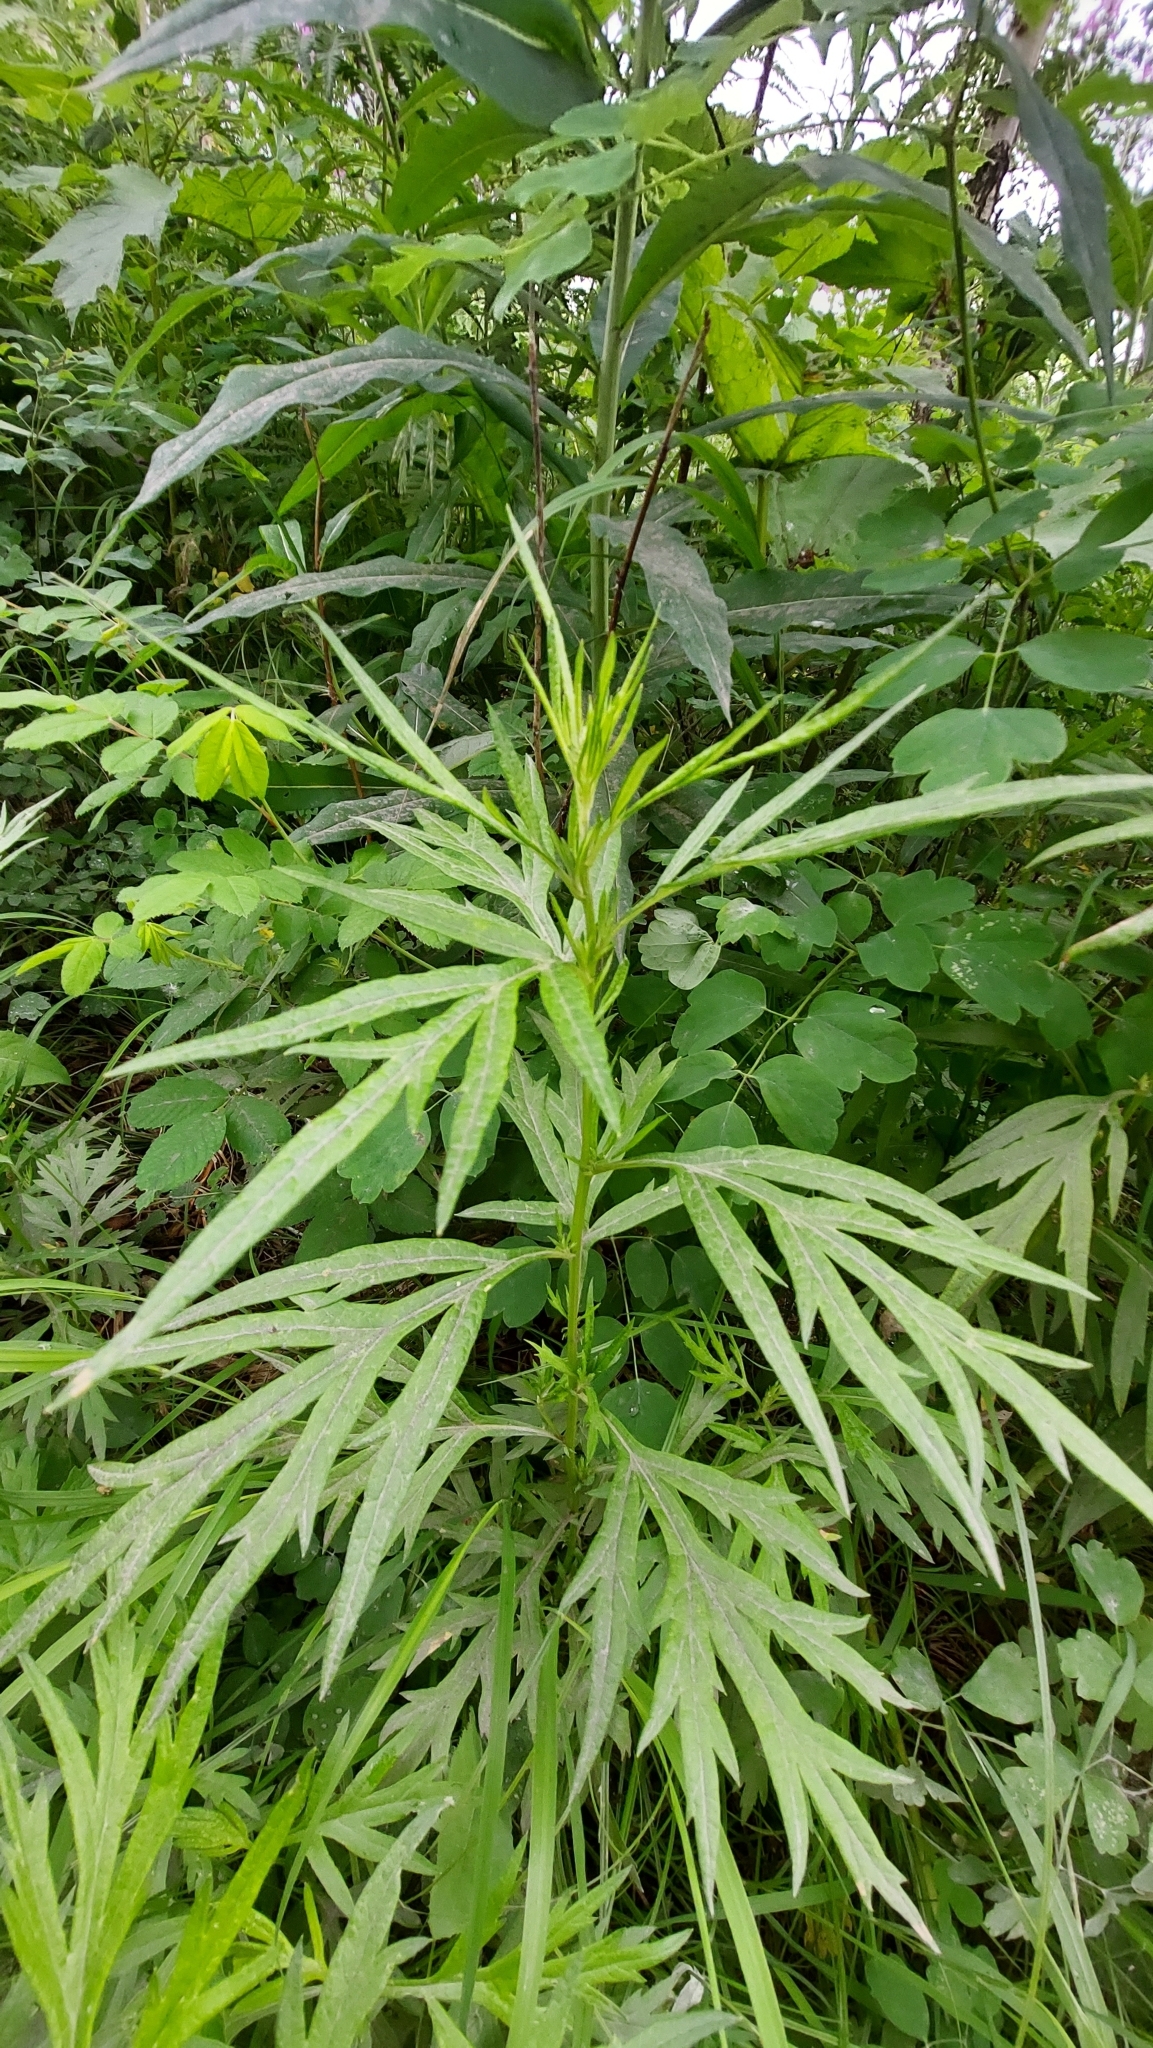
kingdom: Plantae
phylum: Tracheophyta
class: Magnoliopsida
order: Asterales
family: Asteraceae
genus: Artemisia
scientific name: Artemisia vulgaris
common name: Mugwort
